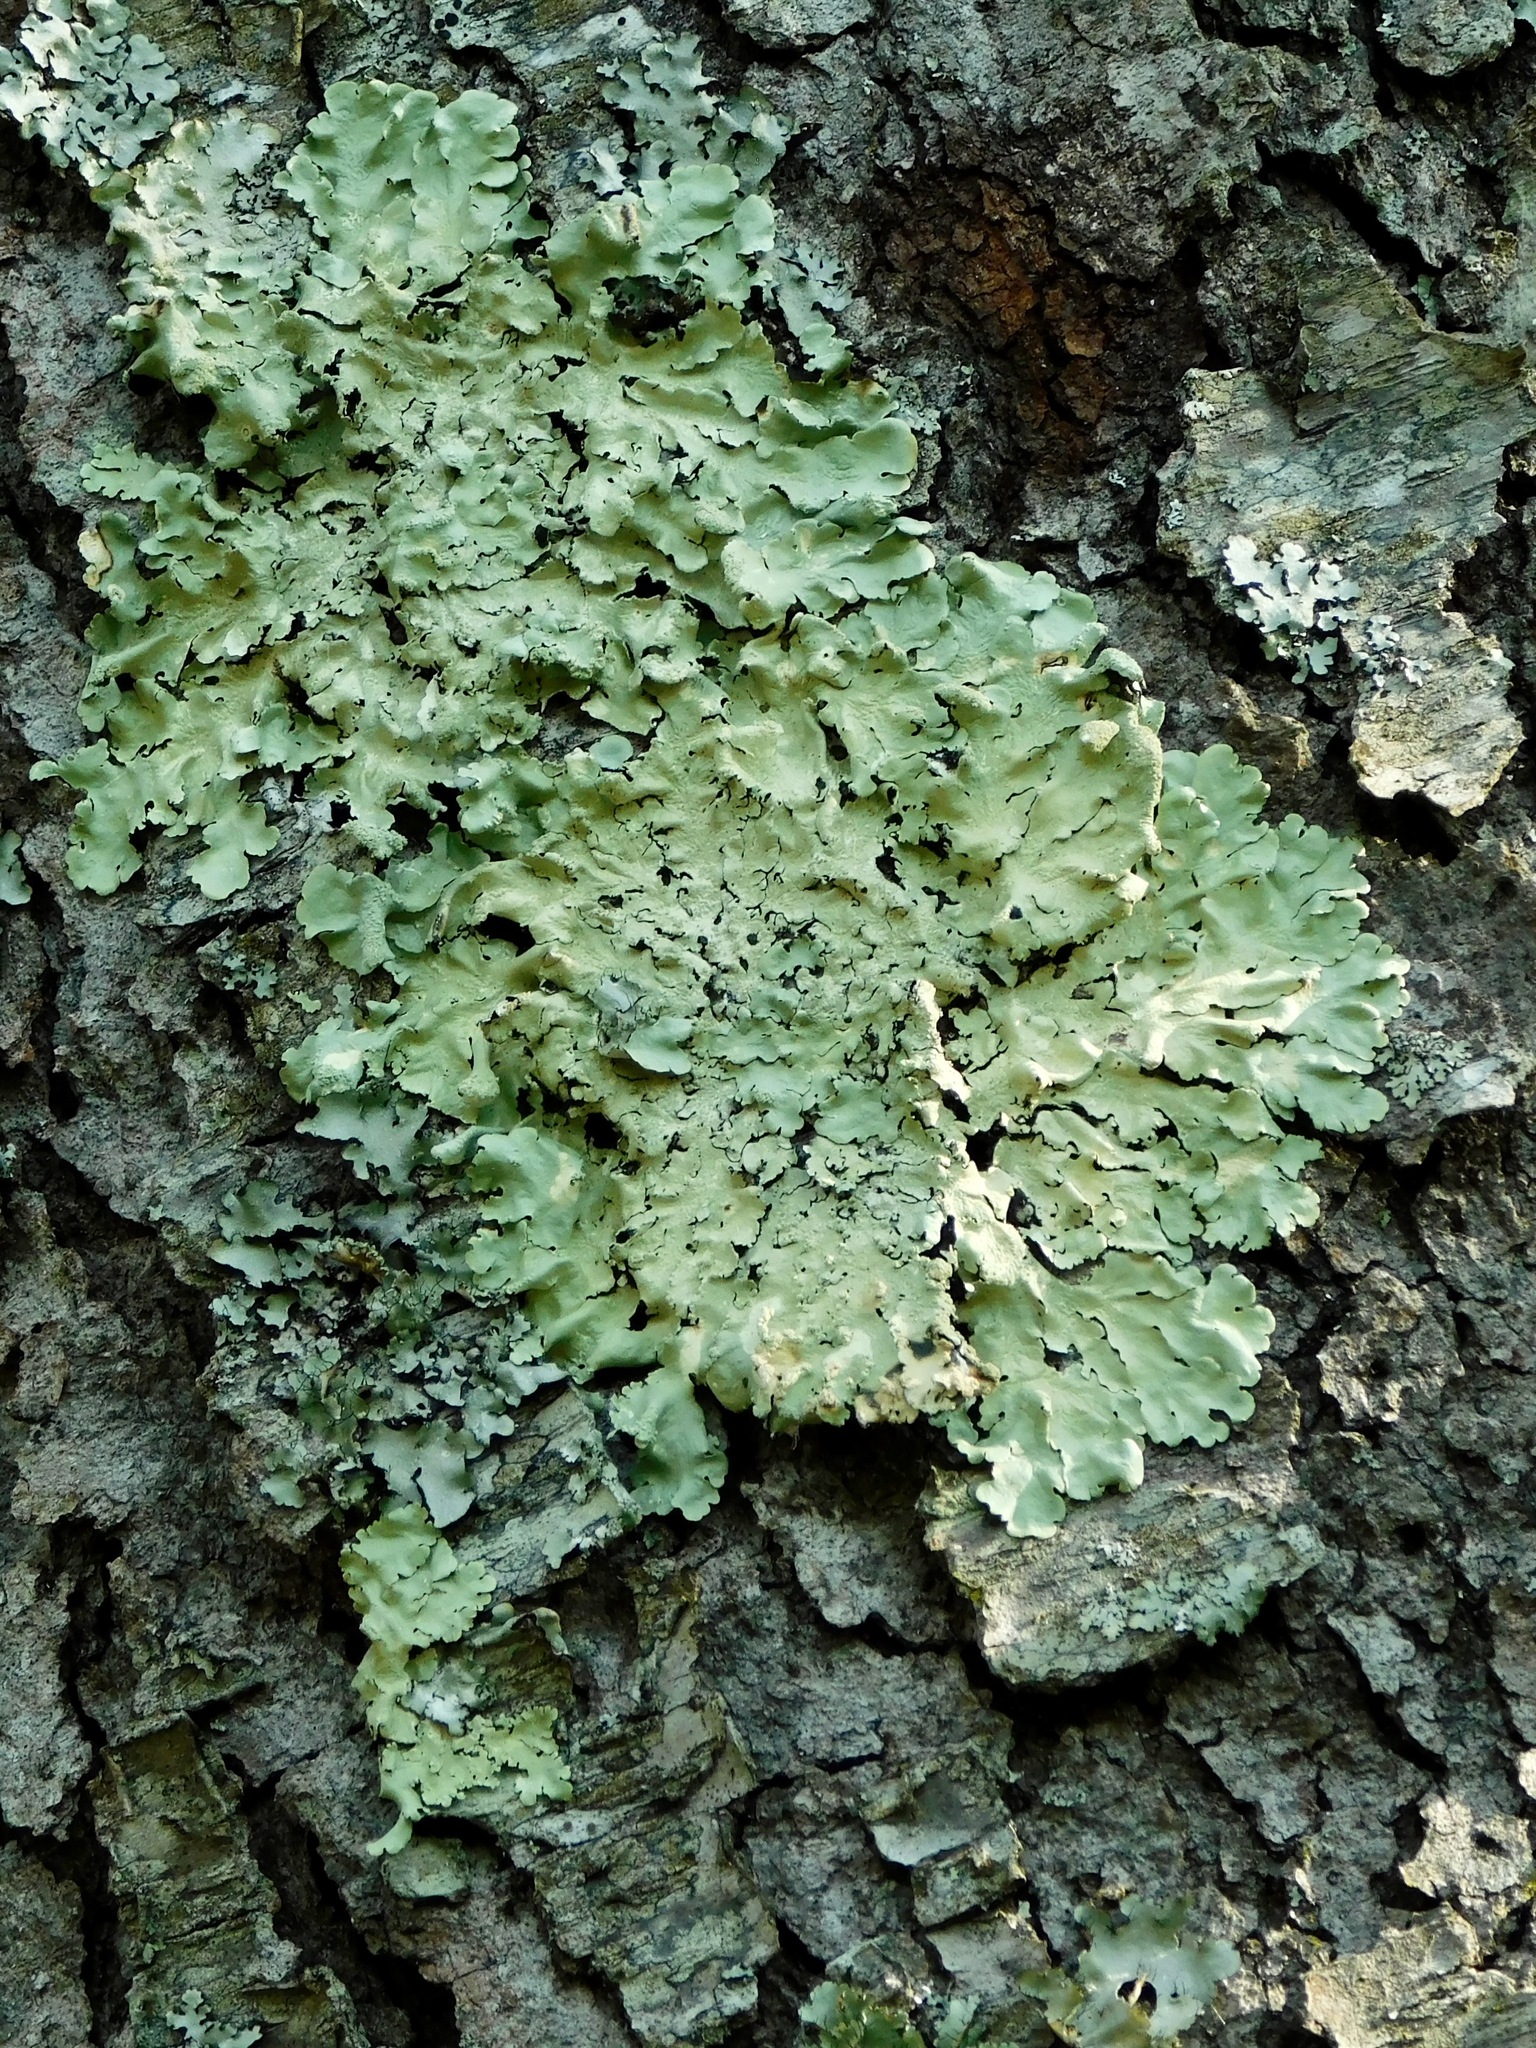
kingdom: Fungi
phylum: Ascomycota
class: Lecanoromycetes
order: Lecanorales
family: Parmeliaceae
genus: Flavoparmelia
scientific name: Flavoparmelia caperata
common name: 40-mile per hour lichen
